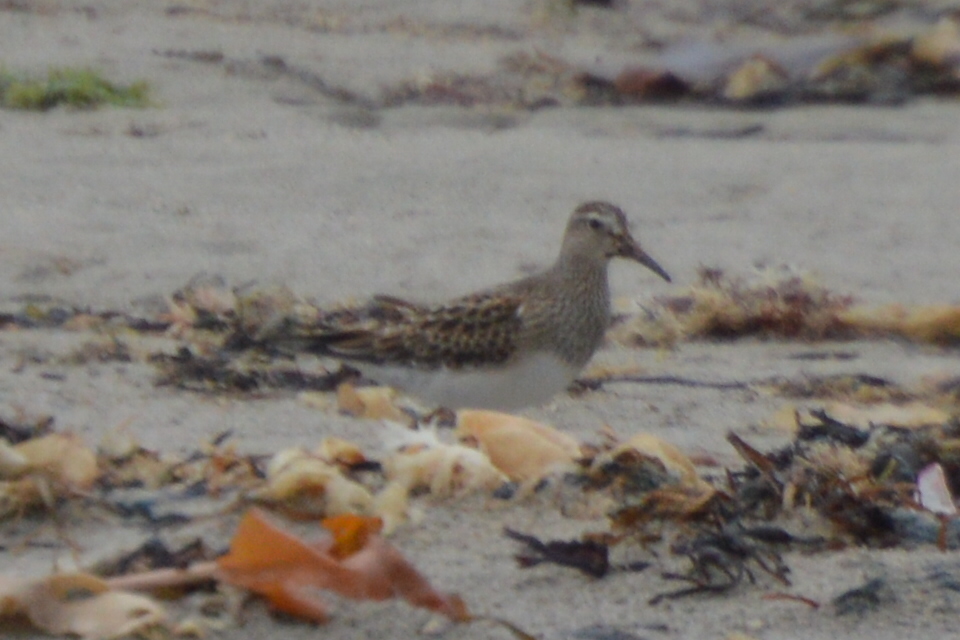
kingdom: Animalia
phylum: Chordata
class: Aves
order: Charadriiformes
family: Scolopacidae
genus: Calidris
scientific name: Calidris melanotos
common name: Pectoral sandpiper
